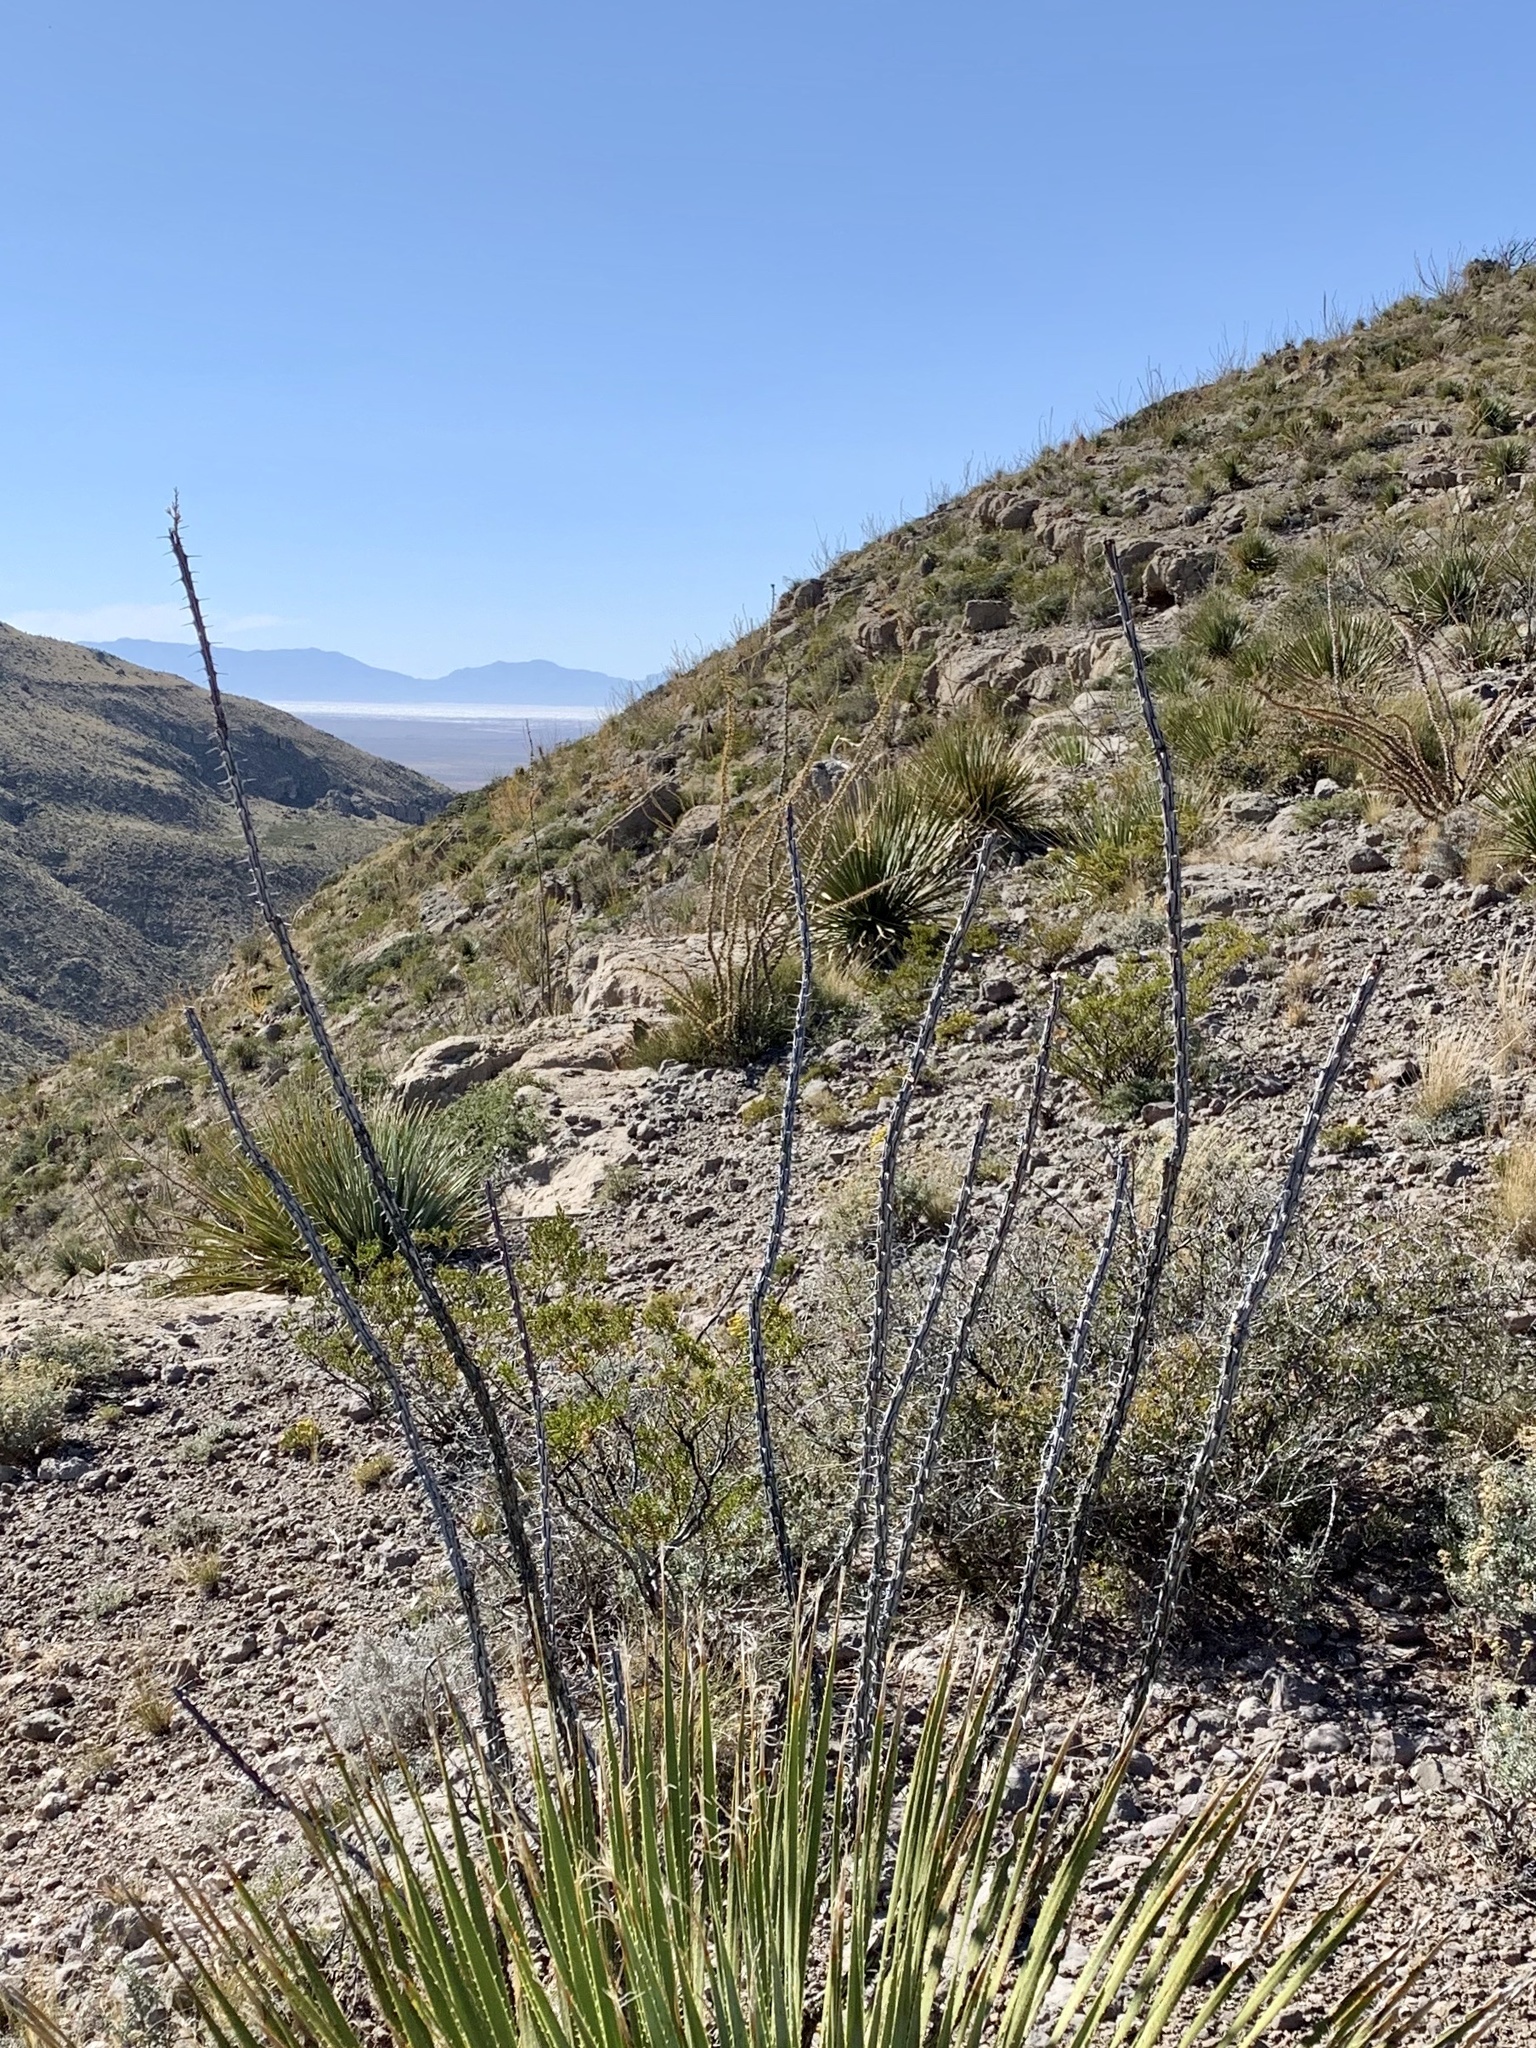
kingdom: Plantae
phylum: Tracheophyta
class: Magnoliopsida
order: Ericales
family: Fouquieriaceae
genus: Fouquieria
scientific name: Fouquieria splendens
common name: Vine-cactus
